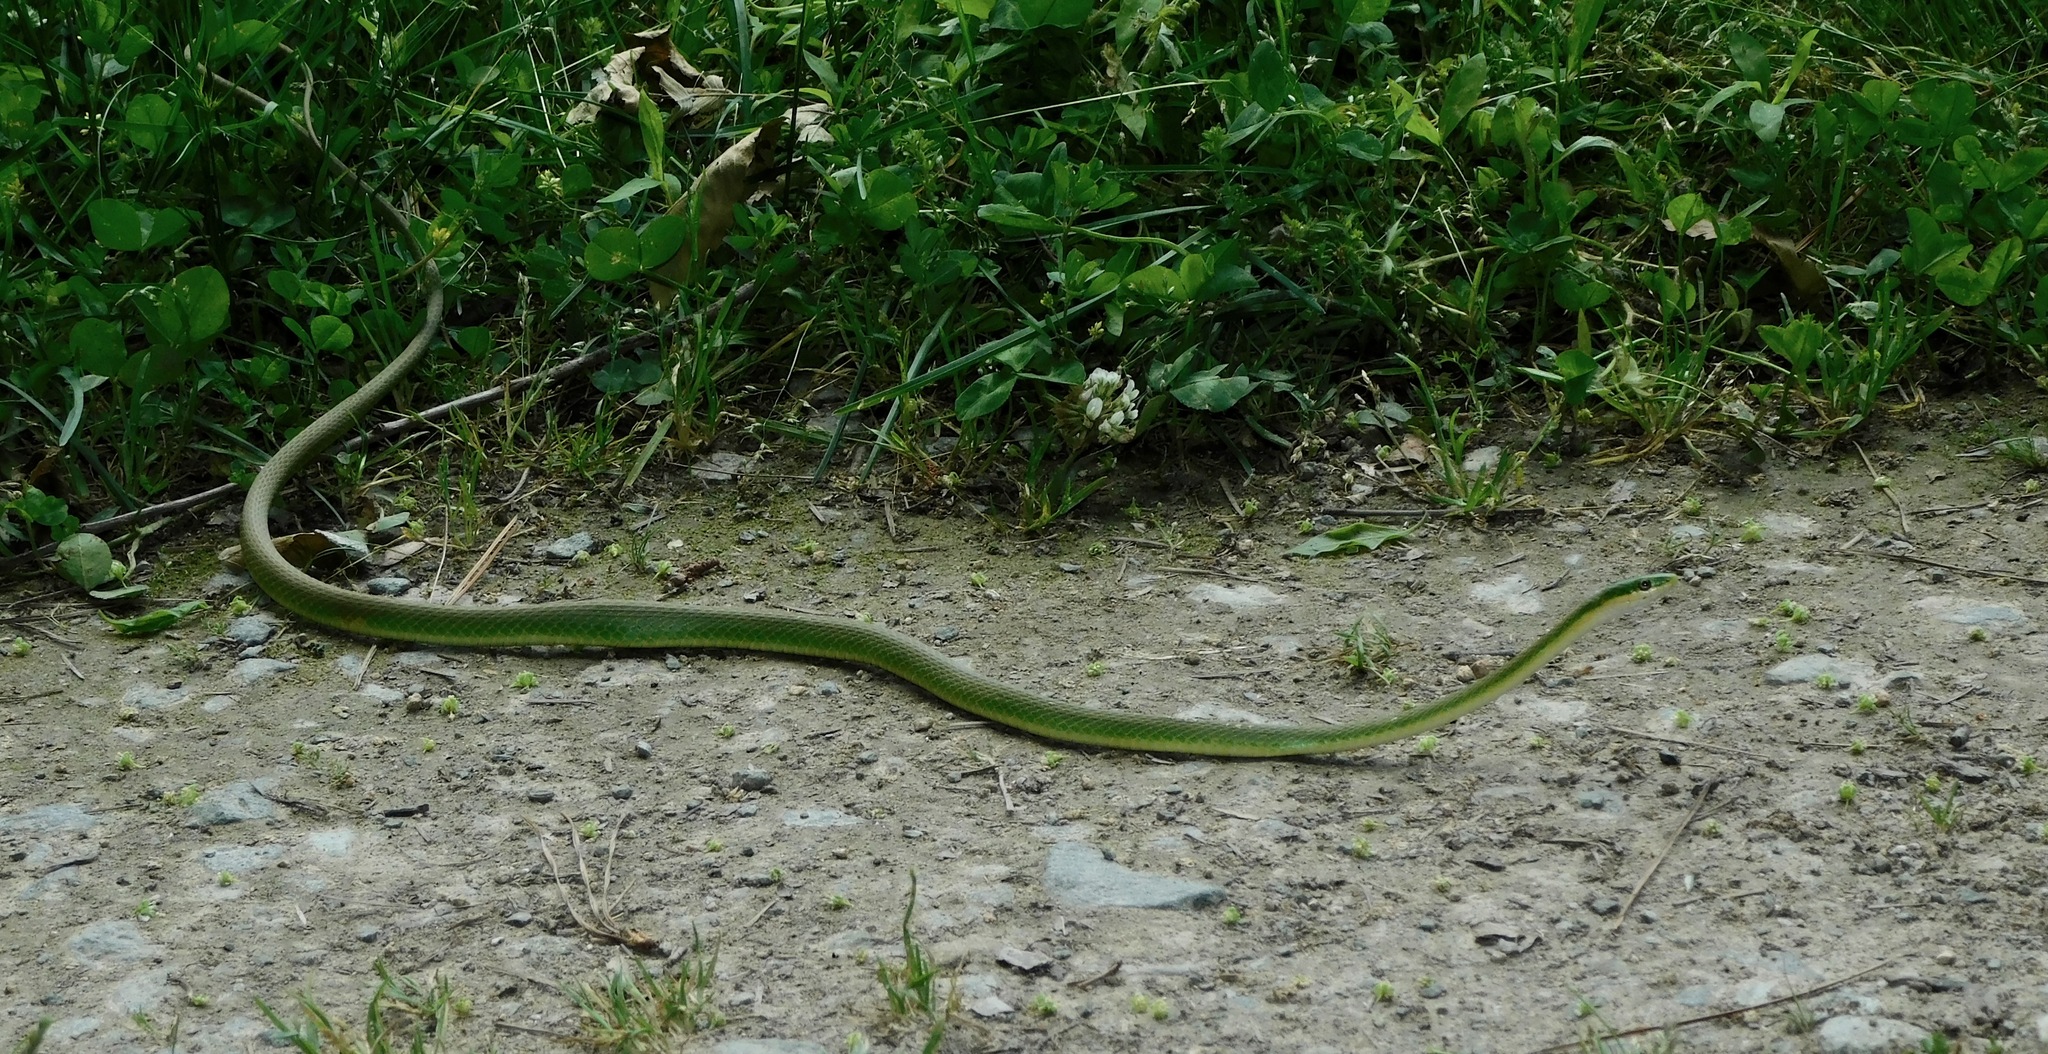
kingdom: Animalia
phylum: Chordata
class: Squamata
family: Colubridae
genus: Opheodrys
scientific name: Opheodrys aestivus
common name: Rough greensnake
